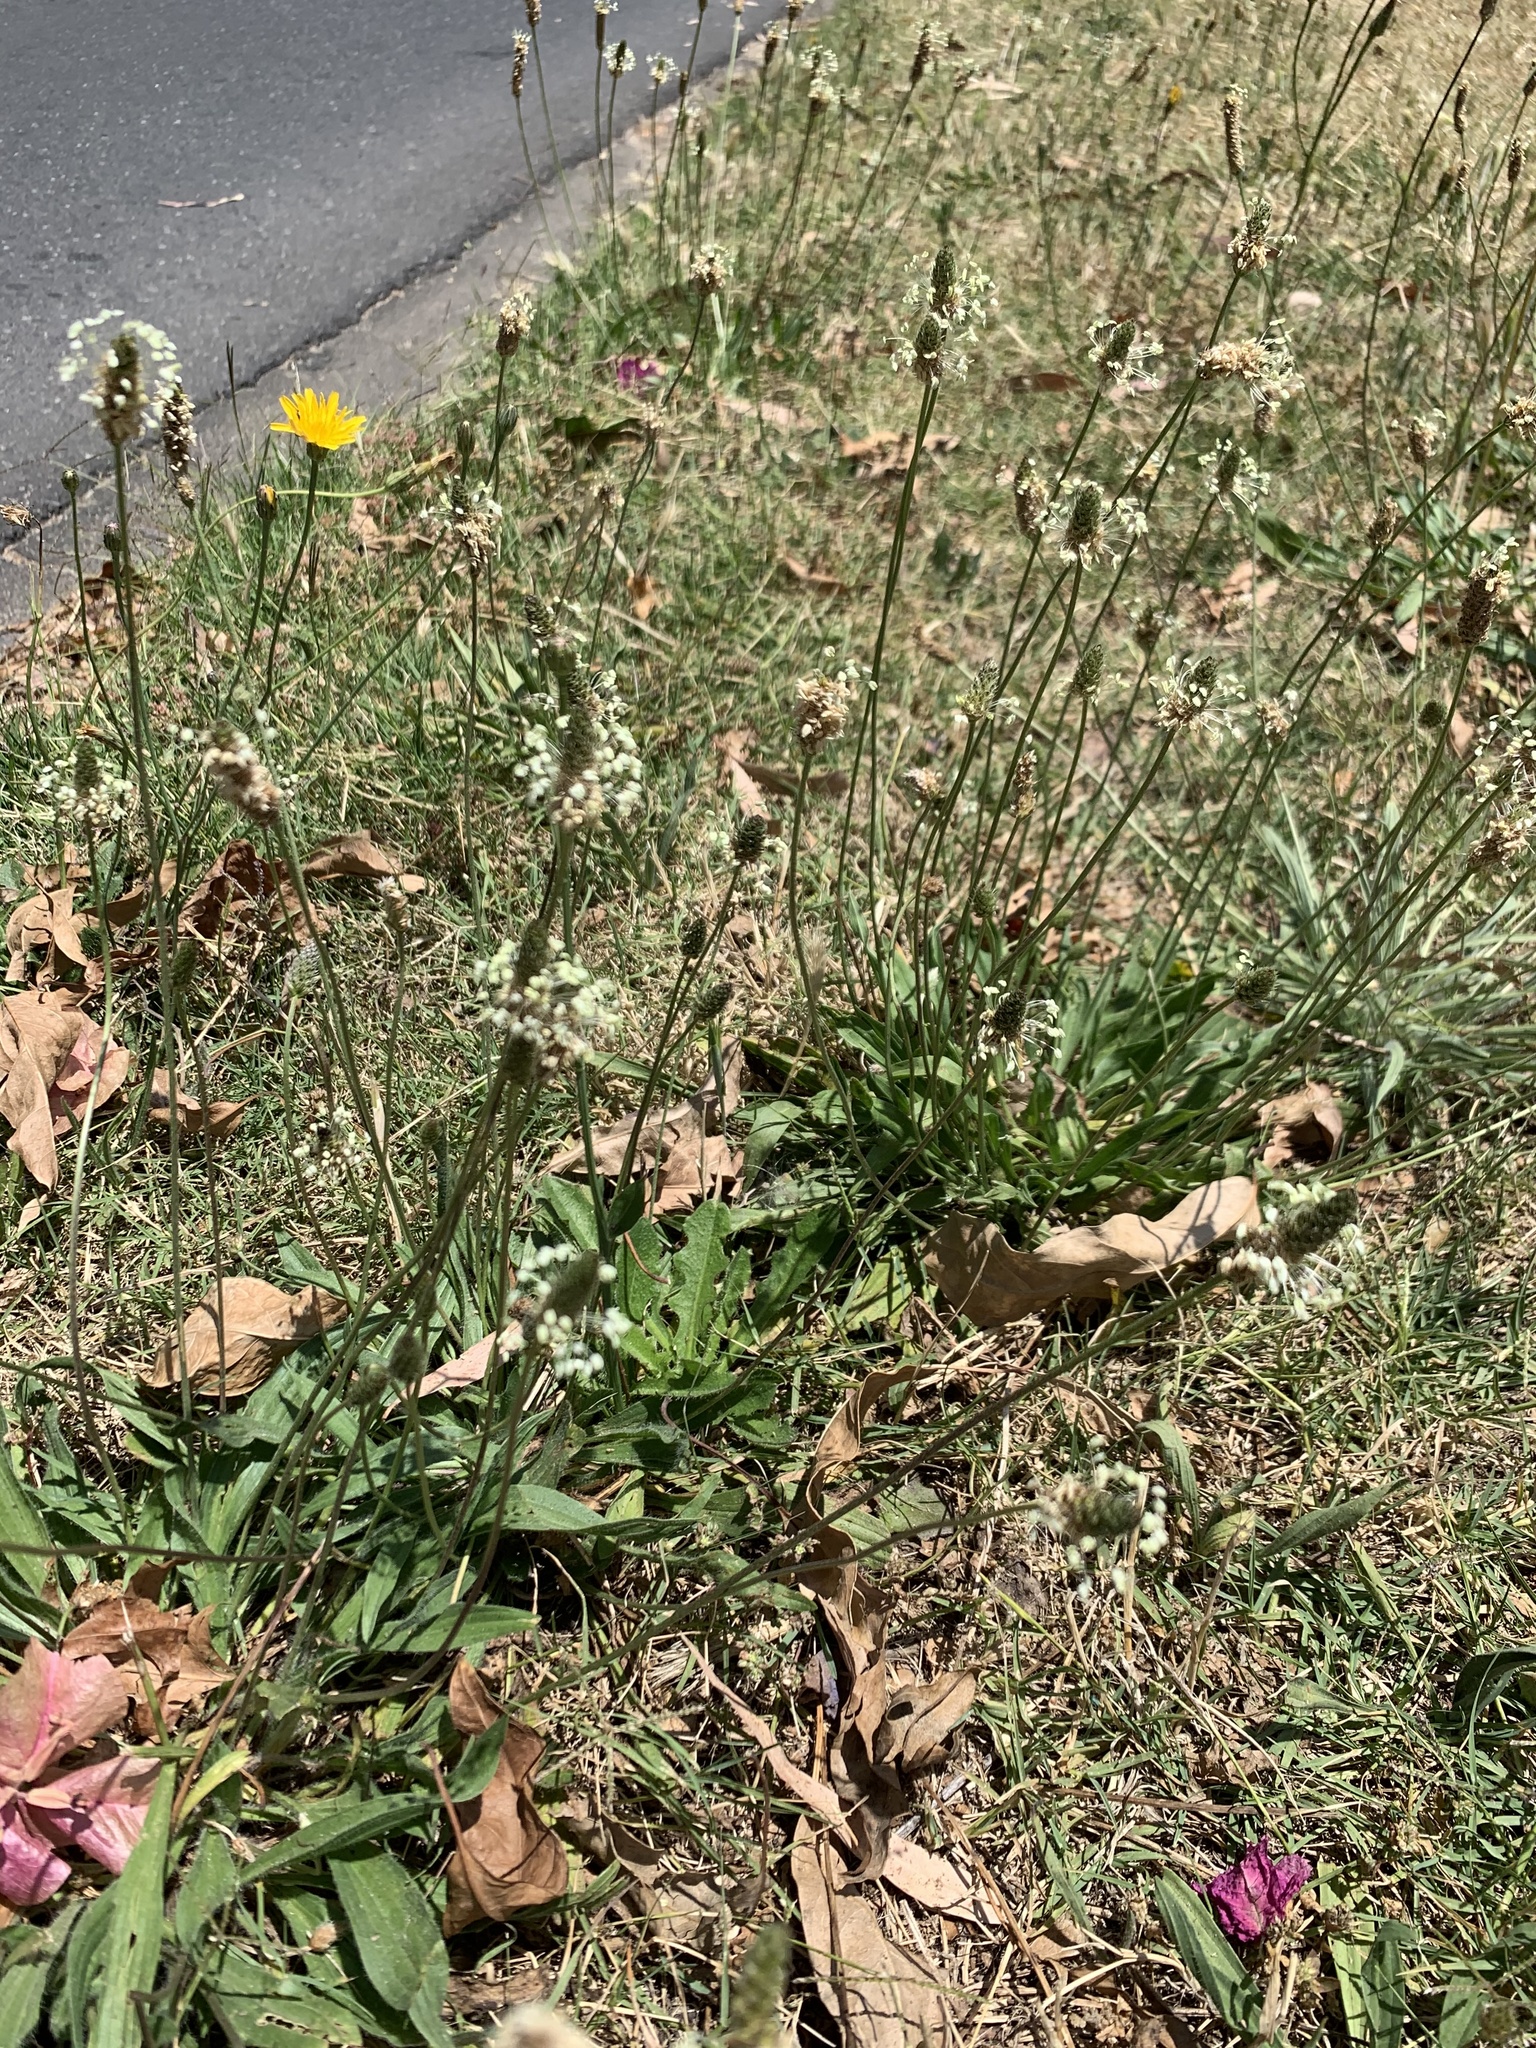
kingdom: Plantae
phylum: Tracheophyta
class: Magnoliopsida
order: Lamiales
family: Plantaginaceae
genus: Plantago
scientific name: Plantago lanceolata
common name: Ribwort plantain
